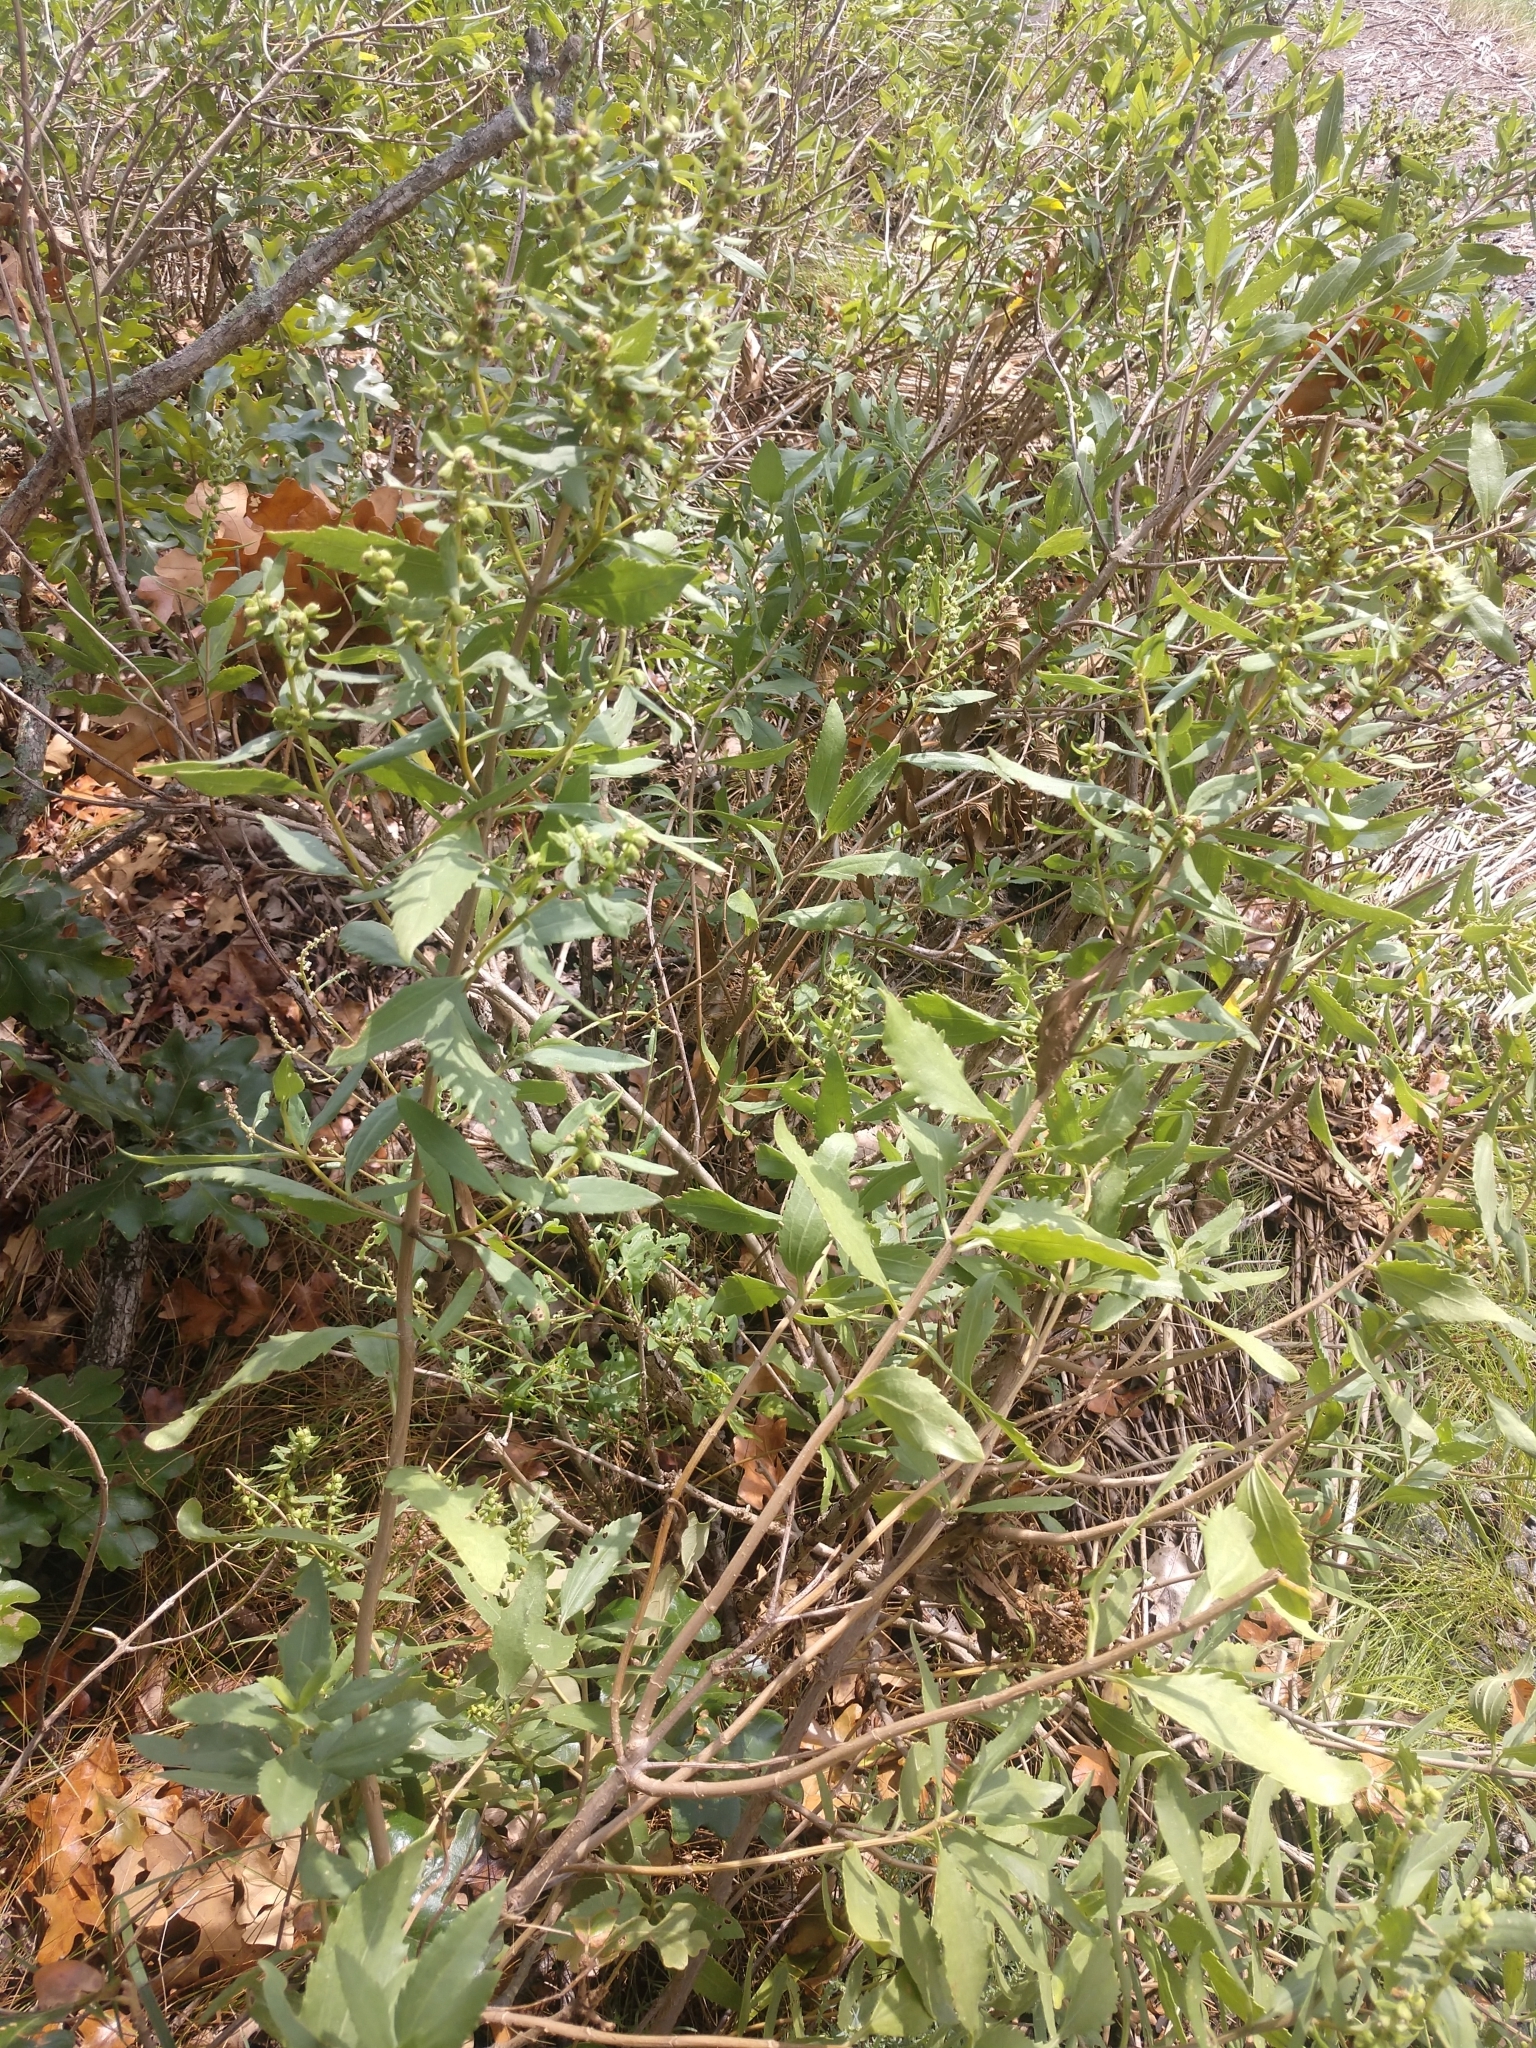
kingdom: Plantae
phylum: Tracheophyta
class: Magnoliopsida
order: Asterales
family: Asteraceae
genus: Iva
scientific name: Iva frutescens
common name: Big-leaved marsh-elder
